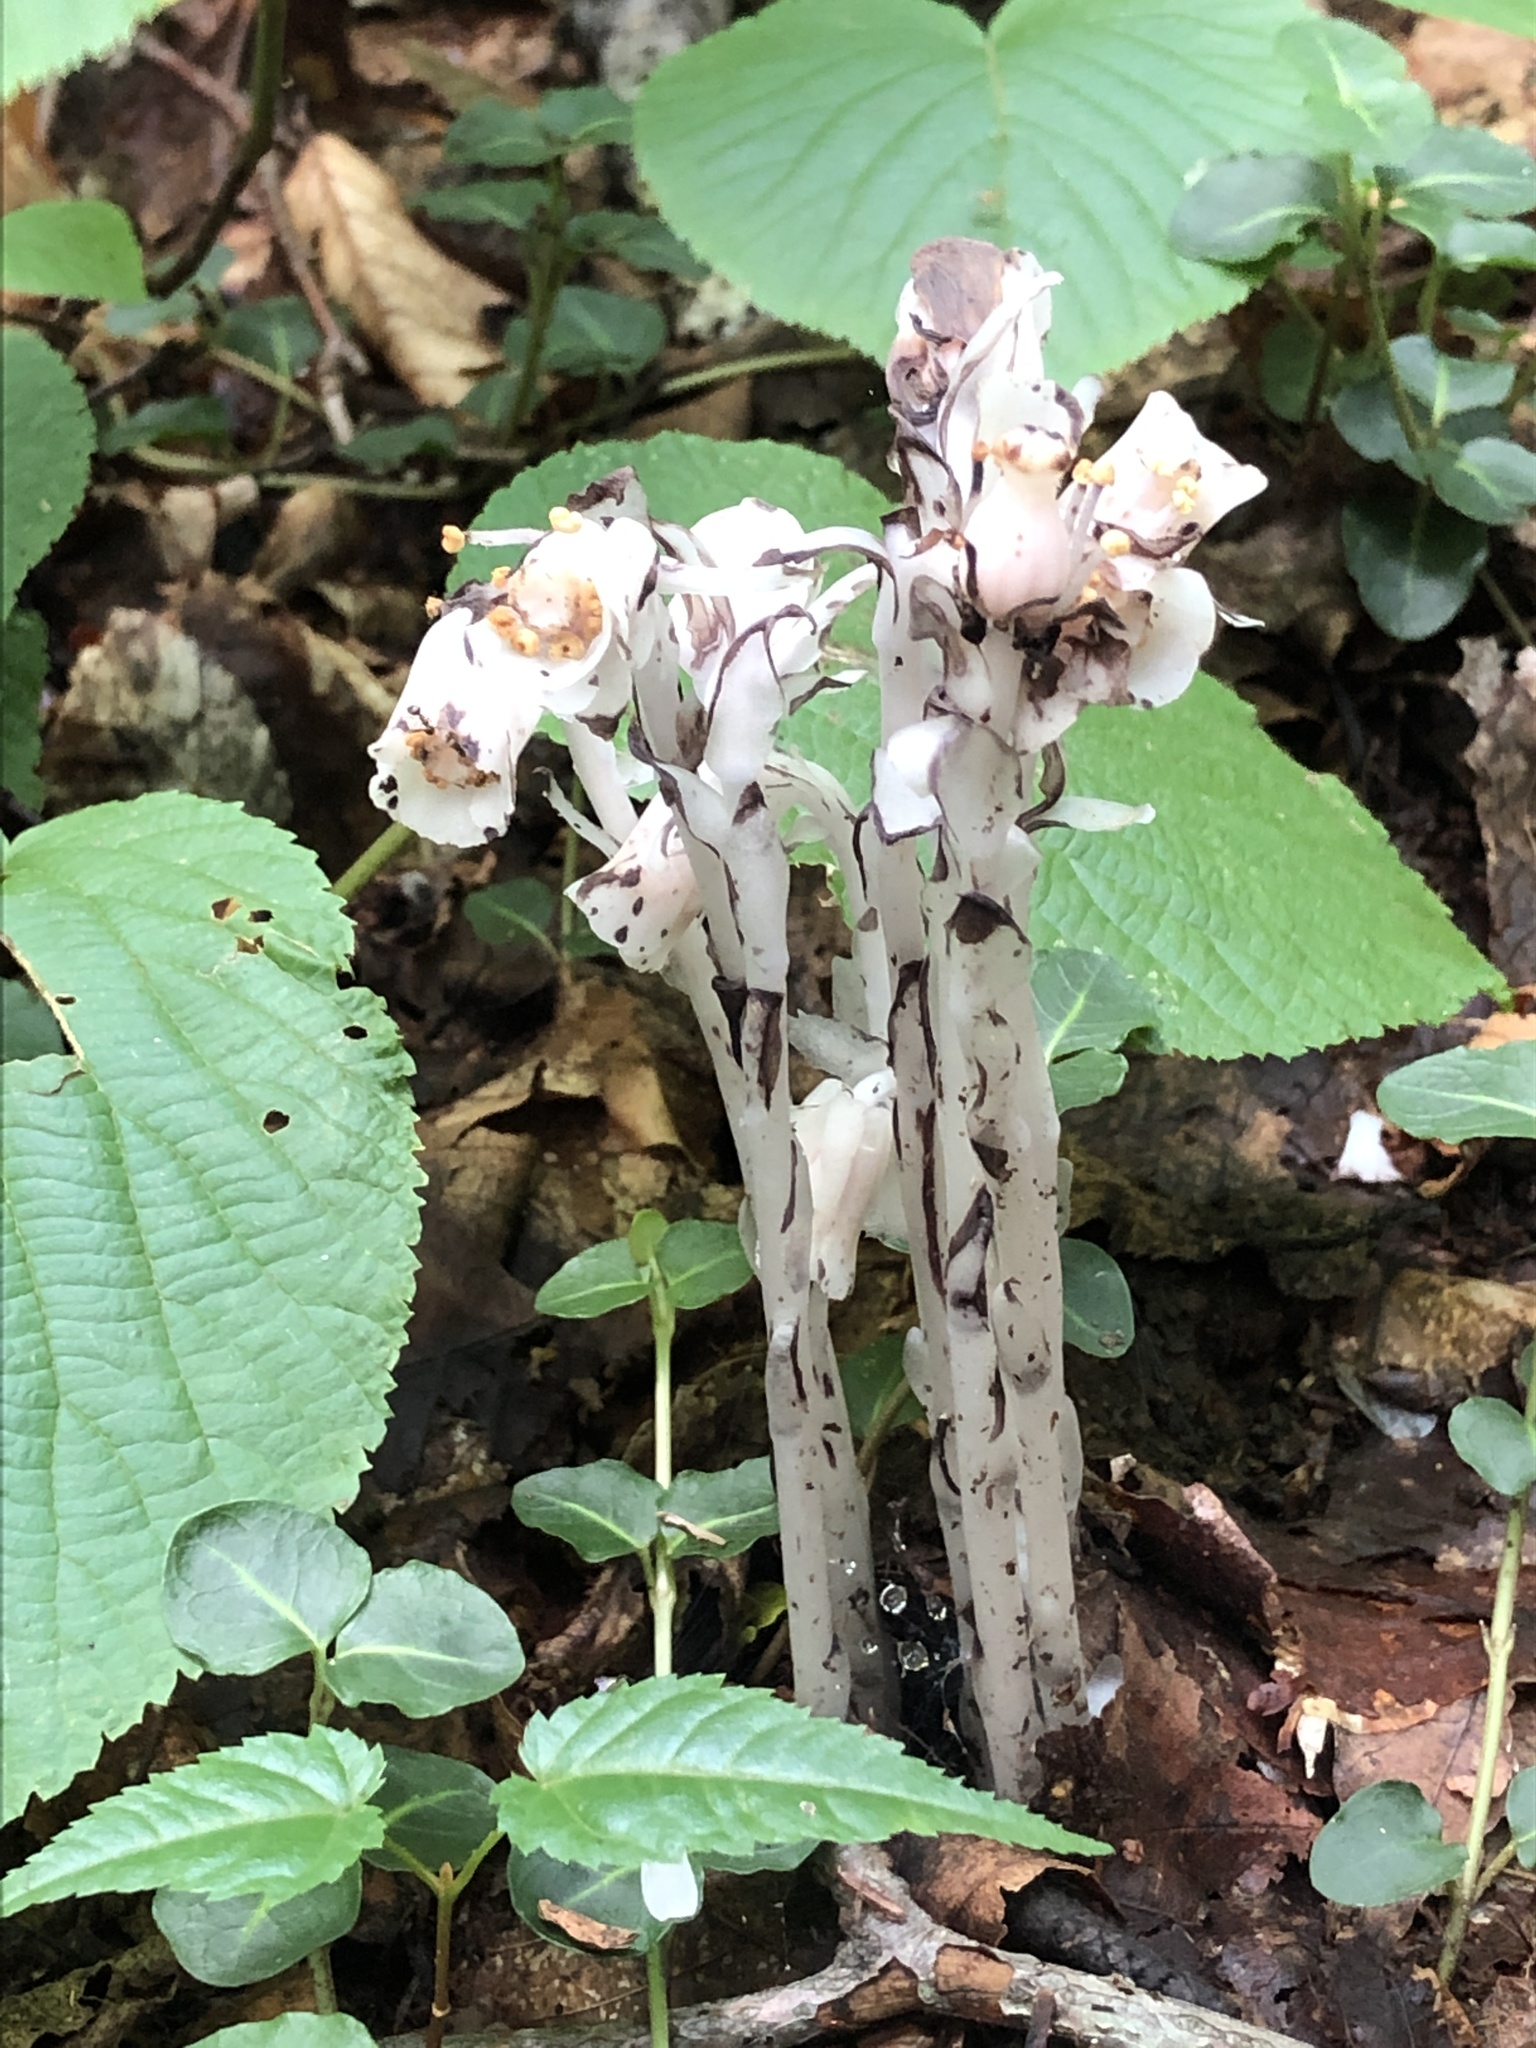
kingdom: Plantae
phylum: Tracheophyta
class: Magnoliopsida
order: Ericales
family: Ericaceae
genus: Monotropa
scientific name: Monotropa uniflora
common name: Convulsion root
